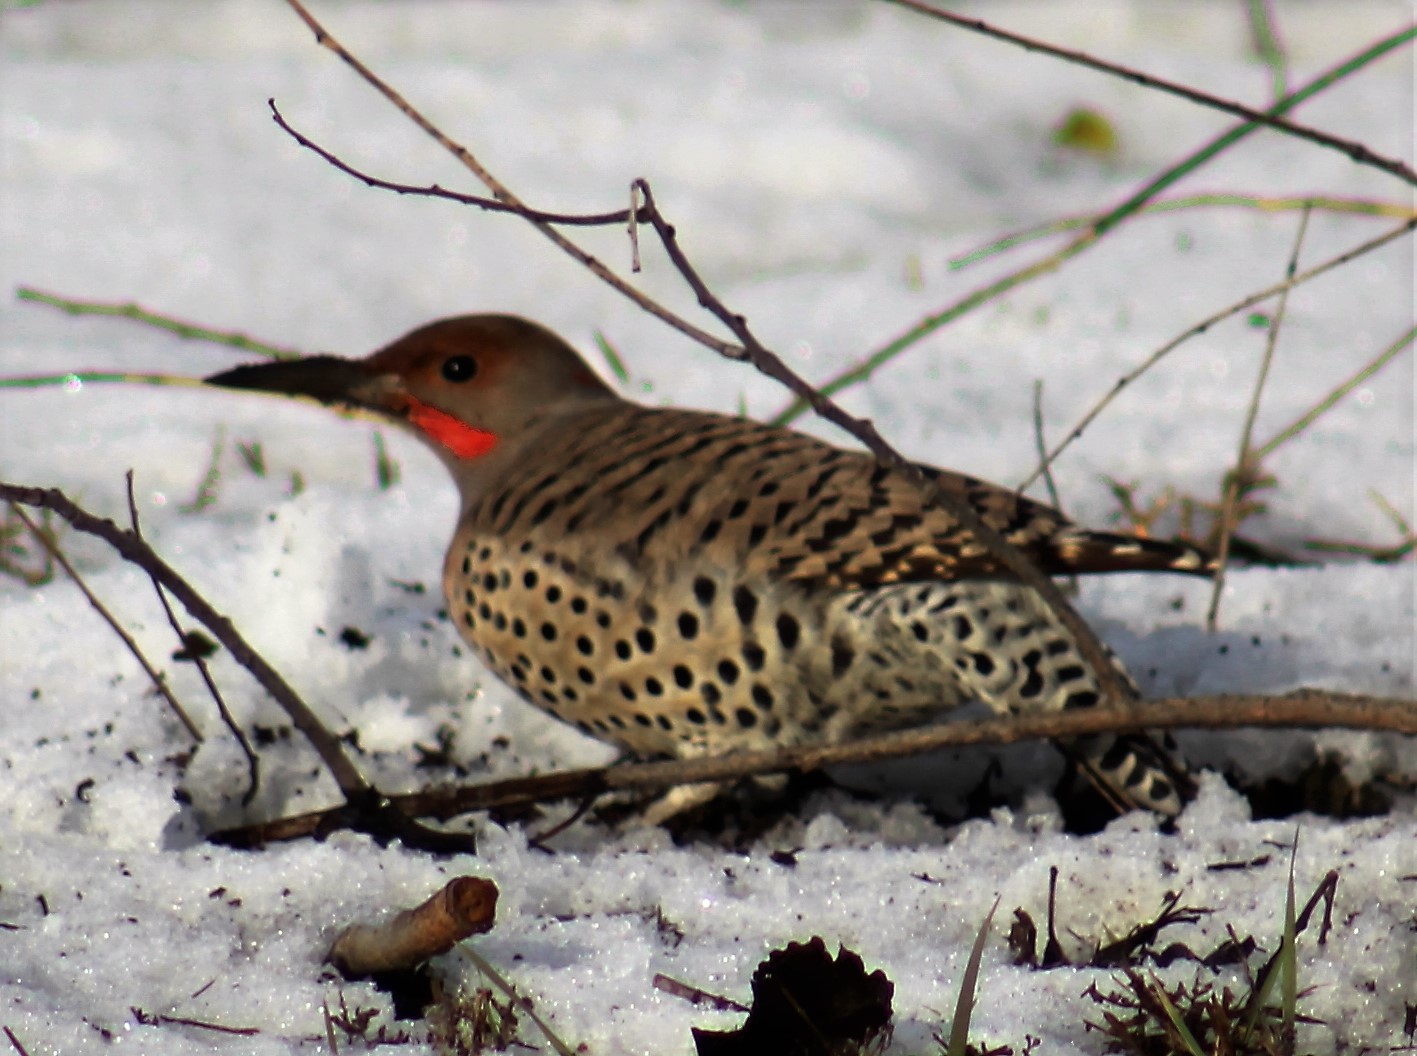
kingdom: Animalia
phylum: Chordata
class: Aves
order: Piciformes
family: Picidae
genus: Colaptes
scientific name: Colaptes auratus
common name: Northern flicker
